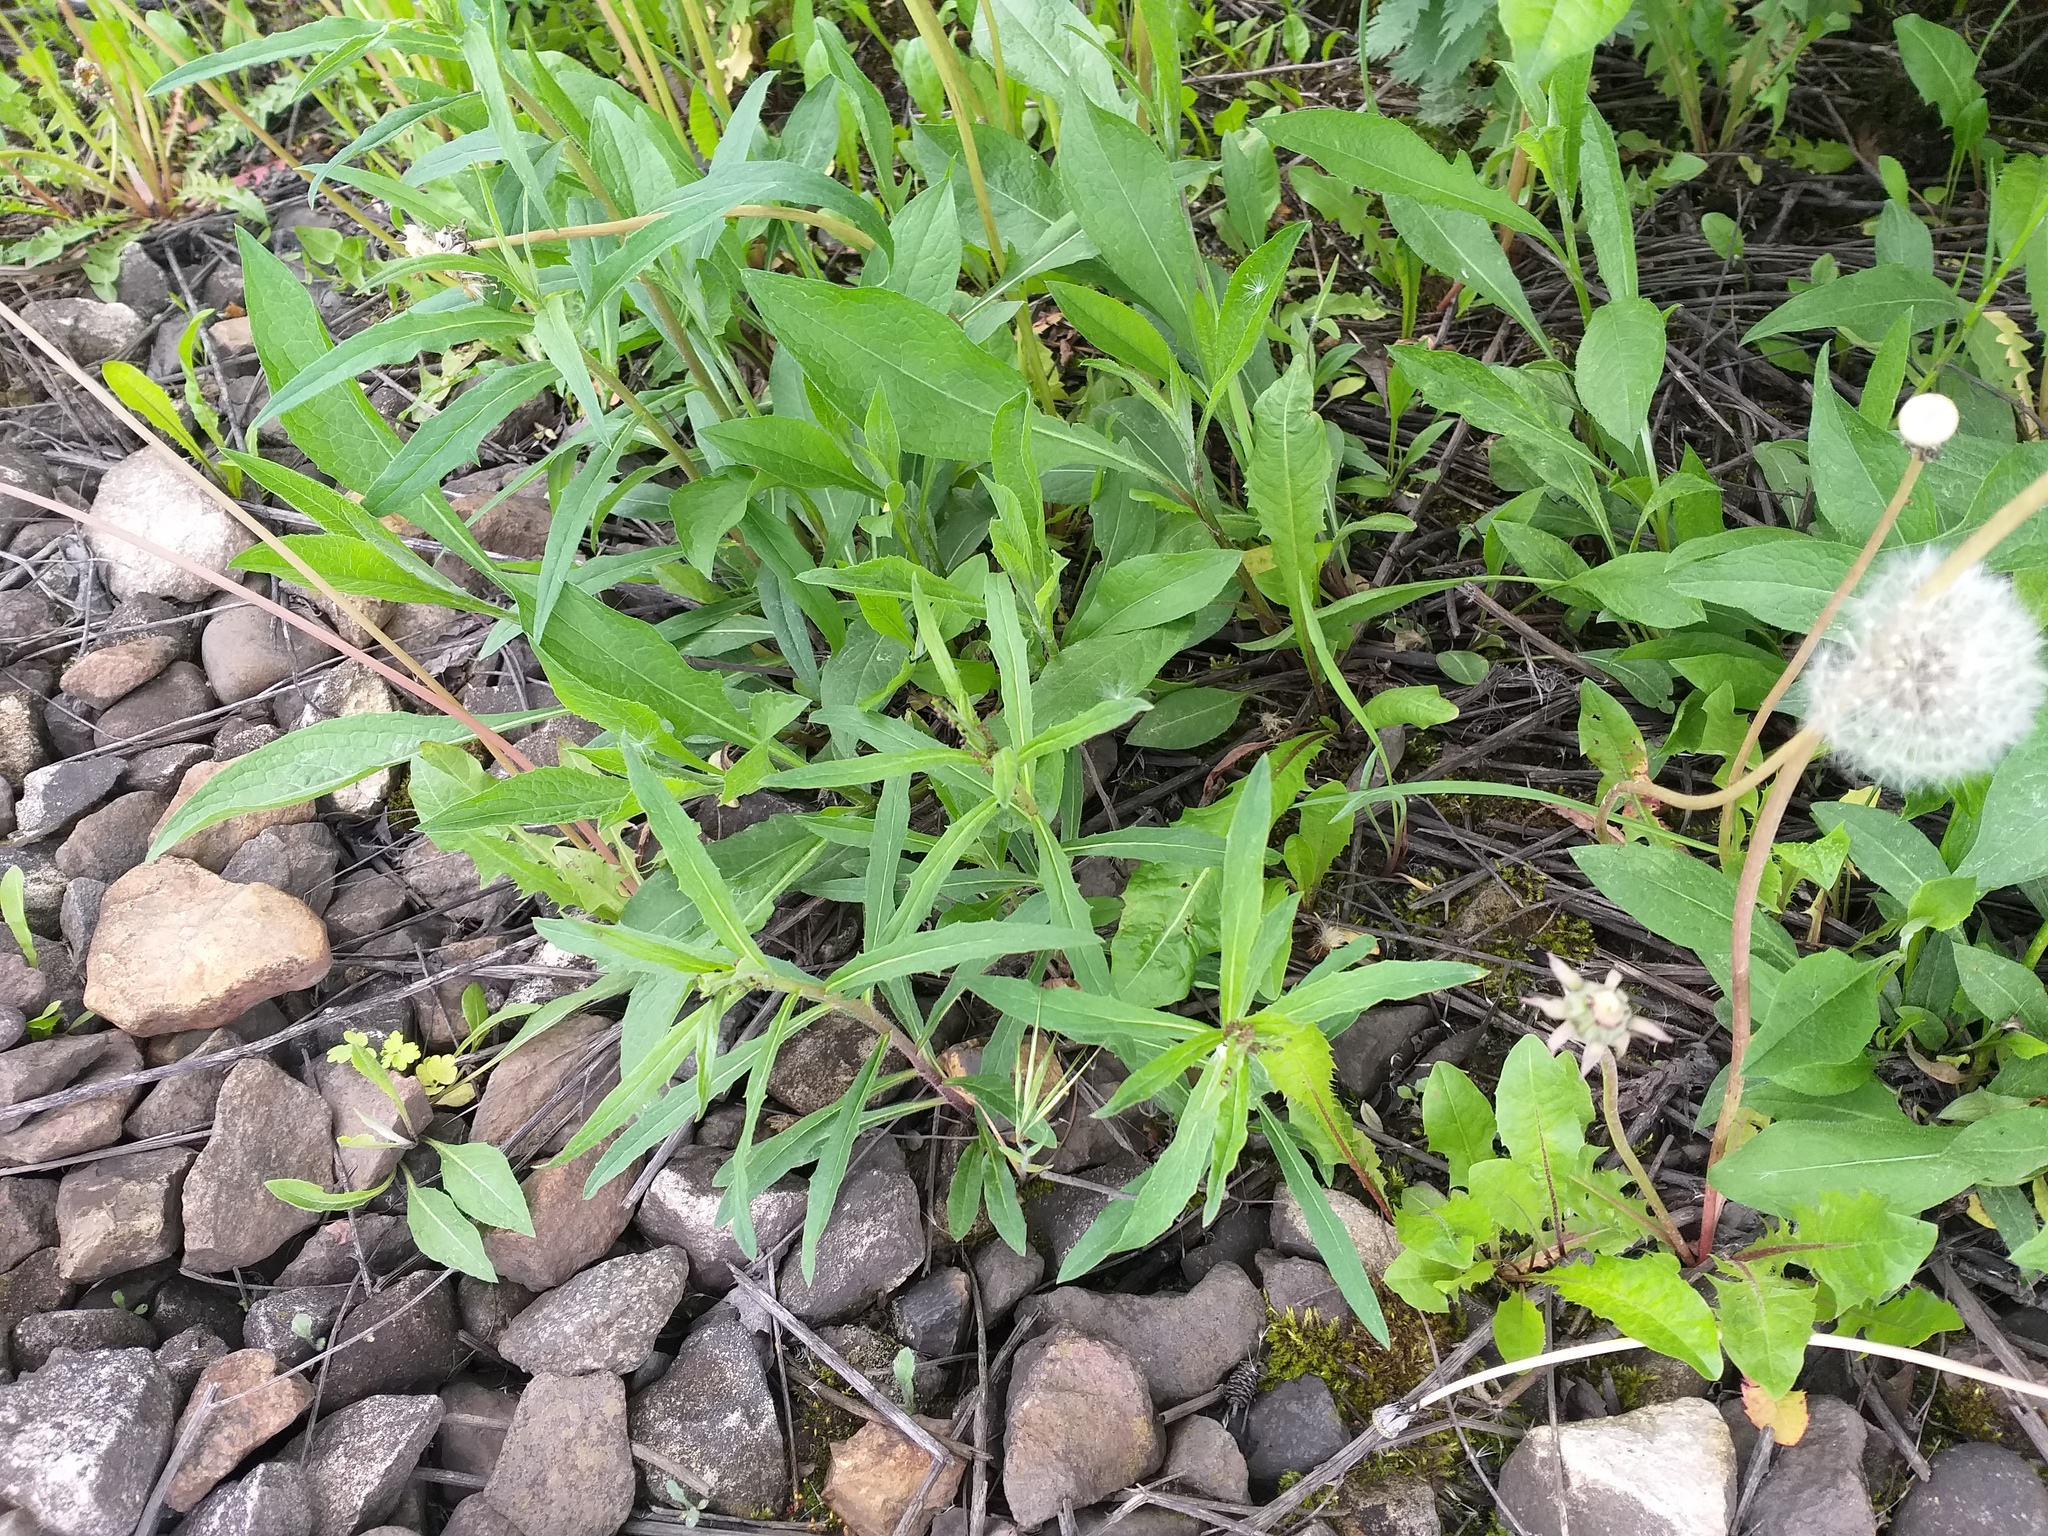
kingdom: Plantae
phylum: Tracheophyta
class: Magnoliopsida
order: Asterales
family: Asteraceae
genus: Hieracium
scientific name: Hieracium umbellatum
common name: Northern hawkweed
